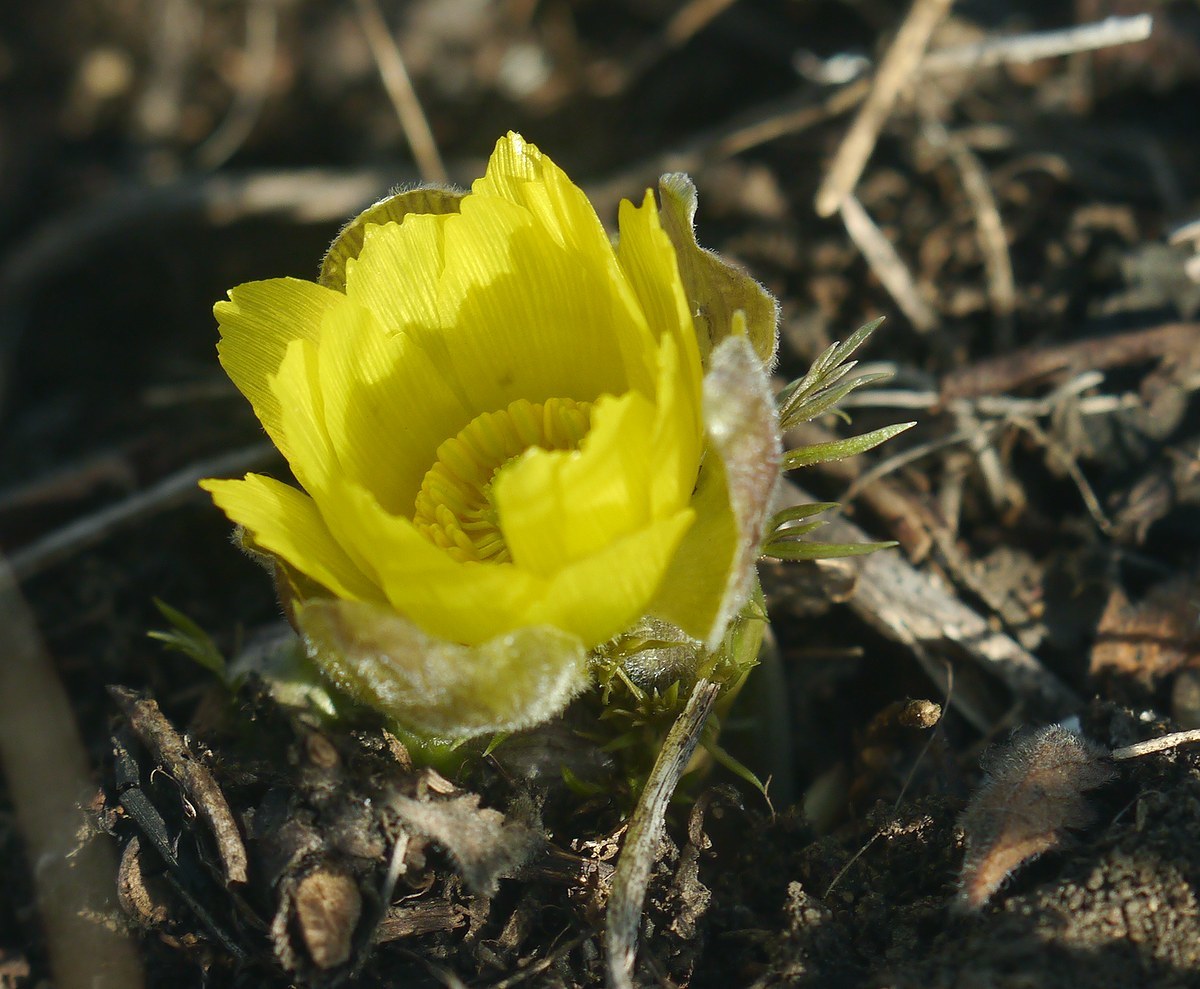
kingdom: Plantae
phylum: Tracheophyta
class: Magnoliopsida
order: Ranunculales
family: Ranunculaceae
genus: Adonis
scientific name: Adonis volgensis
